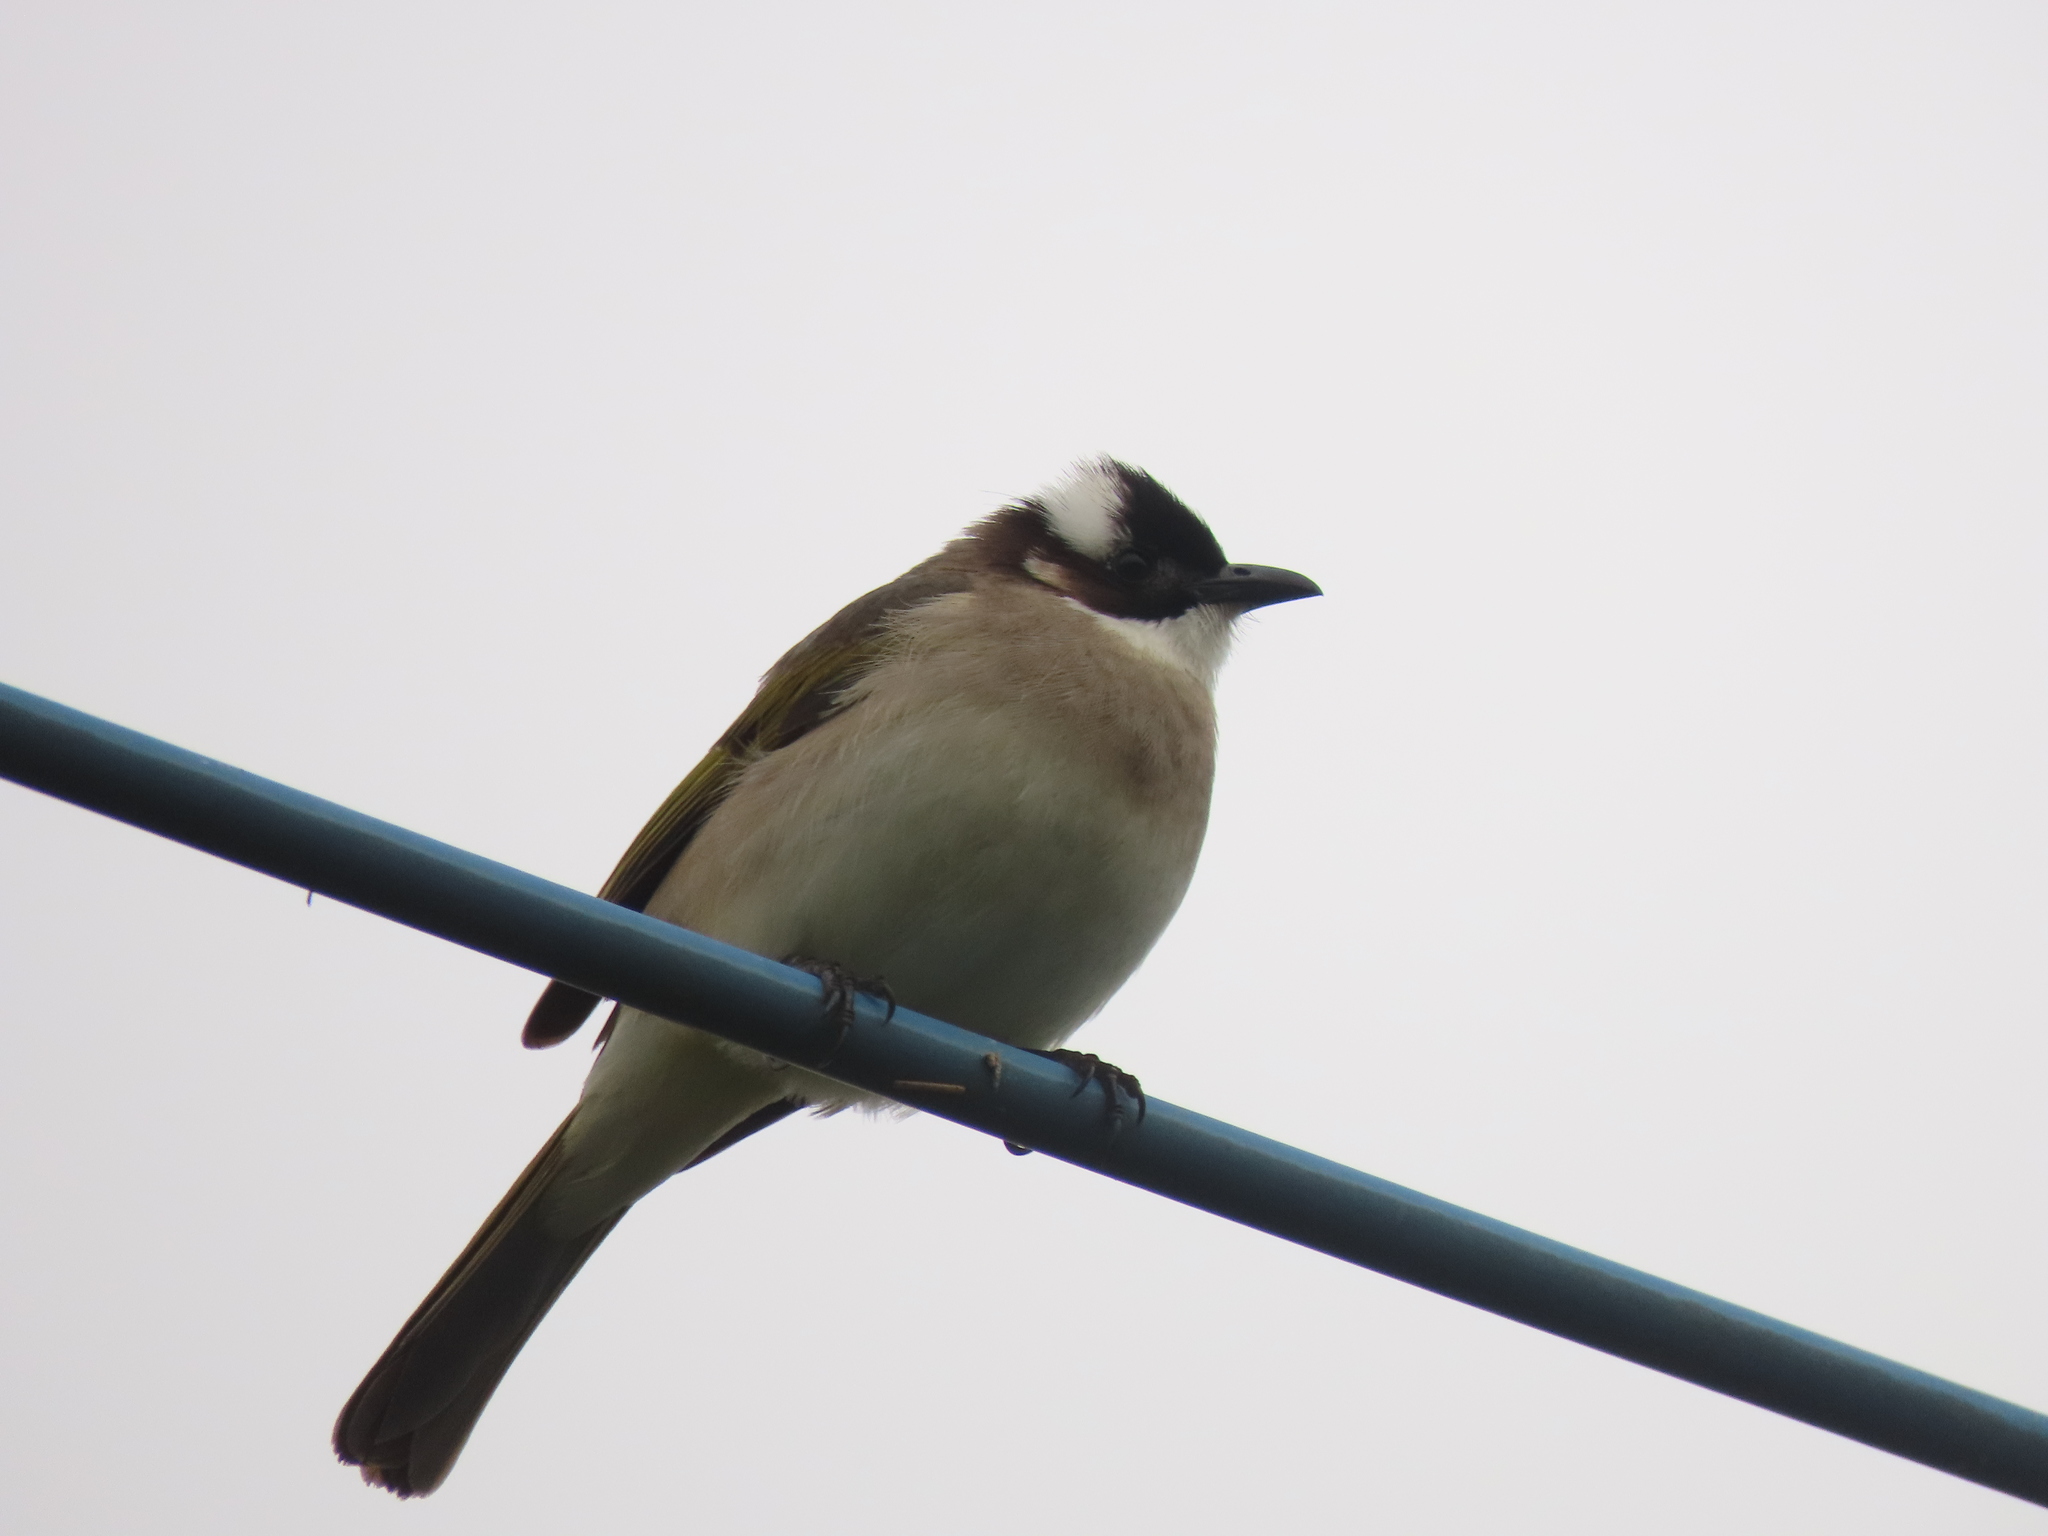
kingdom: Animalia
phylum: Chordata
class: Aves
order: Passeriformes
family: Pycnonotidae
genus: Pycnonotus
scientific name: Pycnonotus sinensis
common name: Light-vented bulbul
